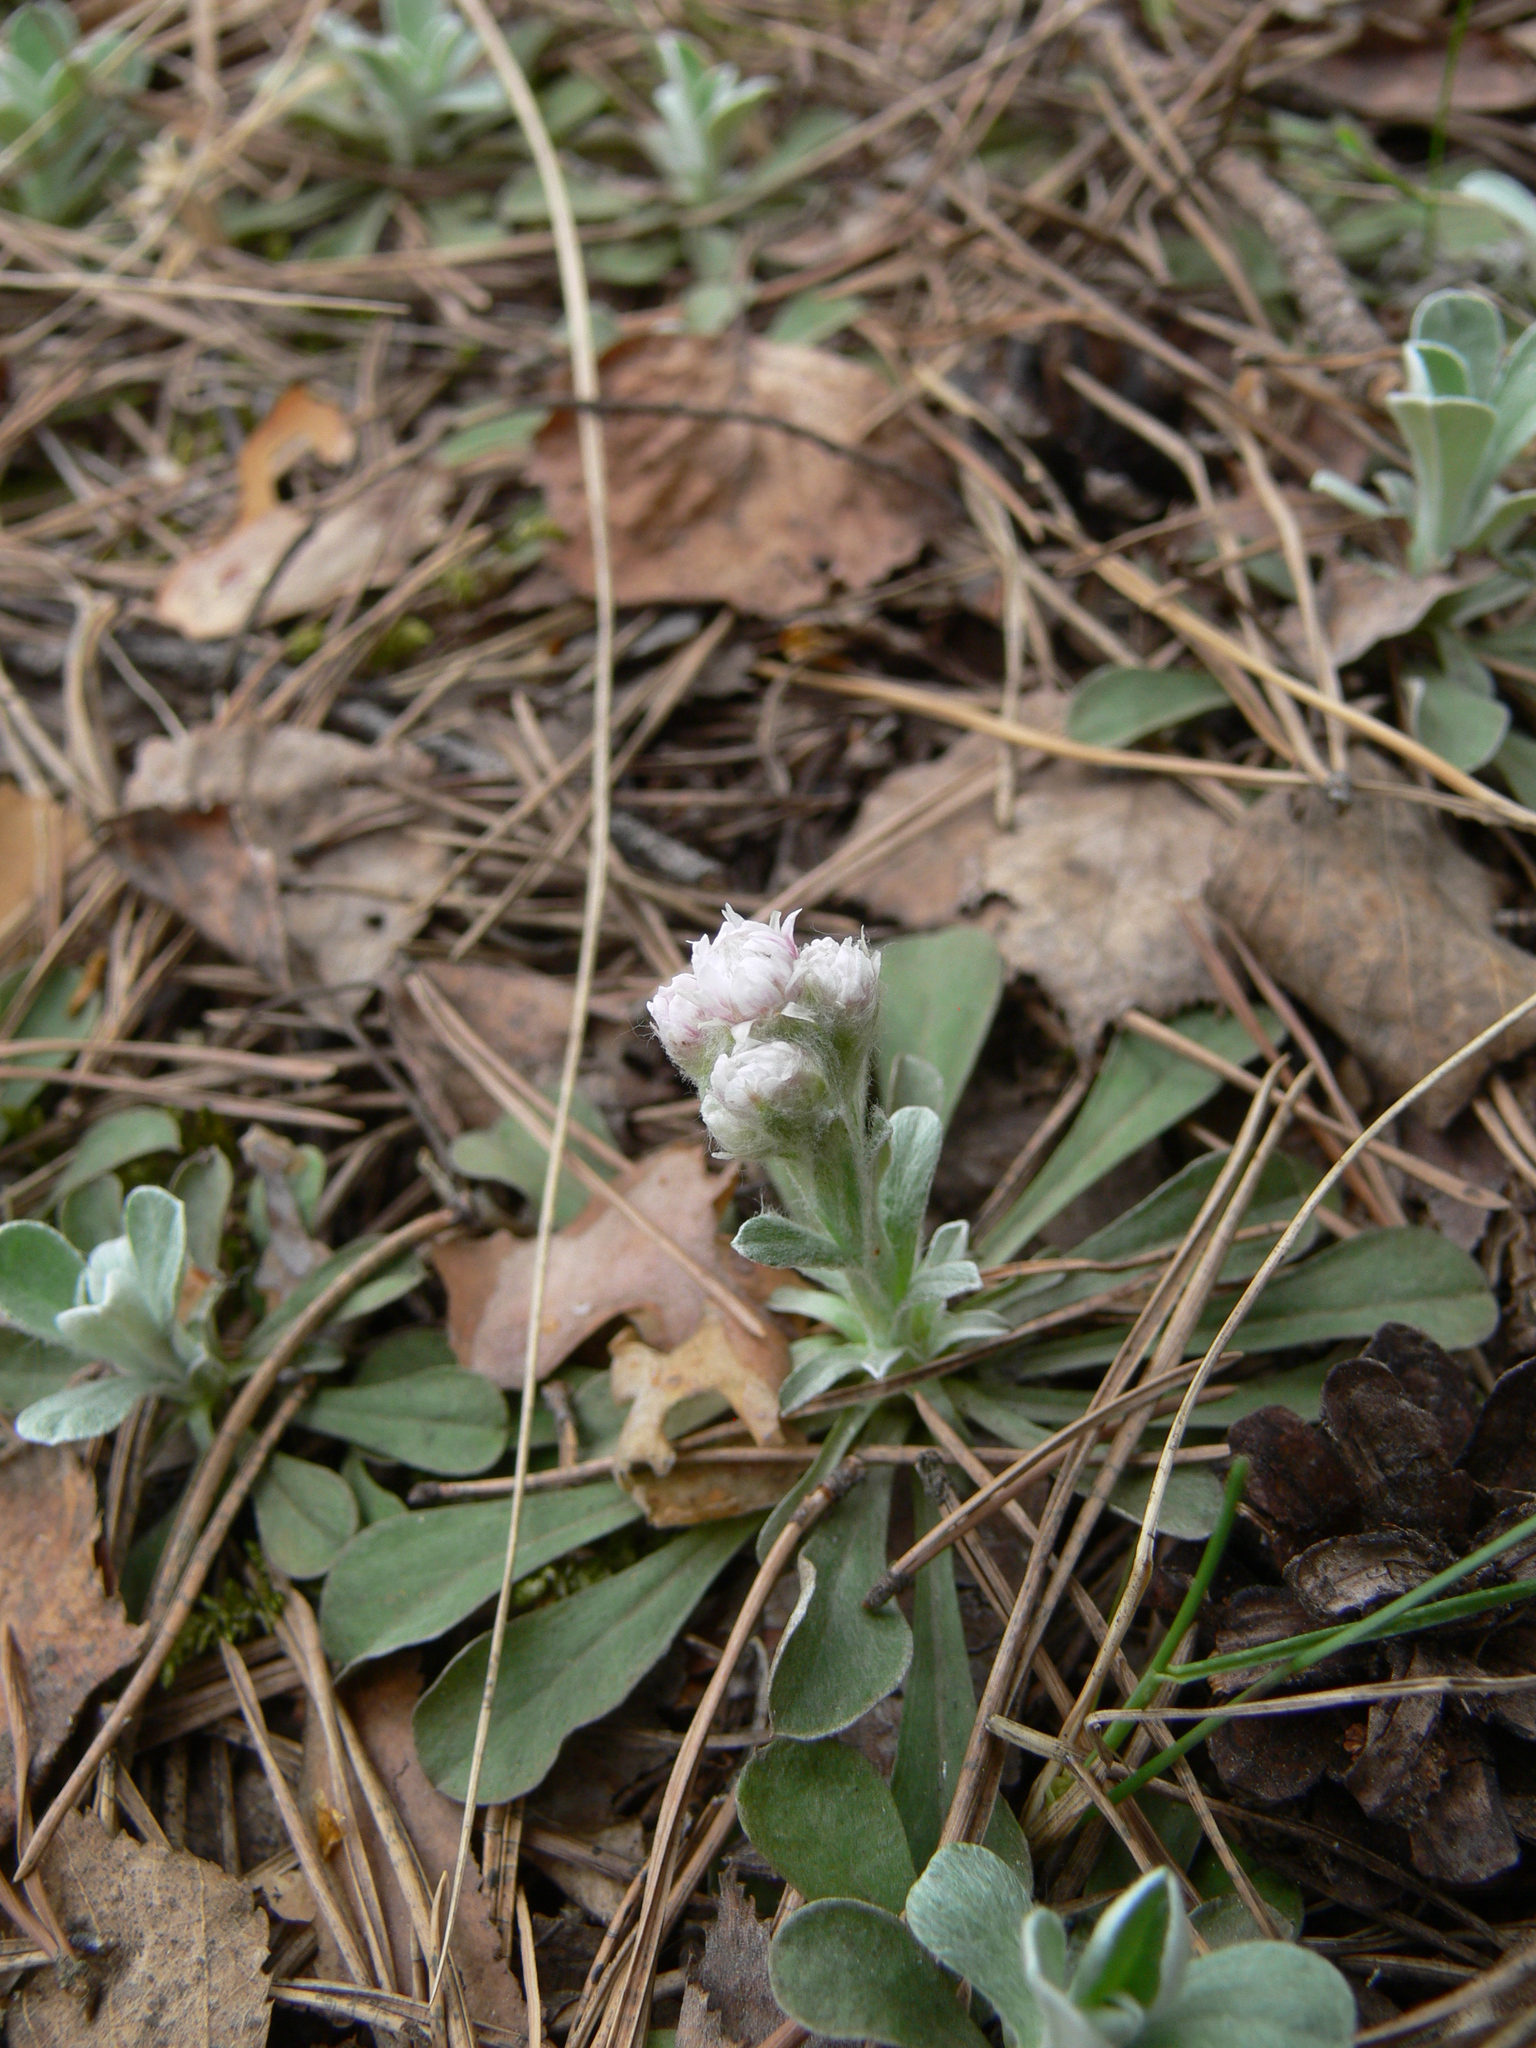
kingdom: Plantae
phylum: Tracheophyta
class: Magnoliopsida
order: Asterales
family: Asteraceae
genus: Antennaria
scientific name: Antennaria dioica
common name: Mountain everlasting
